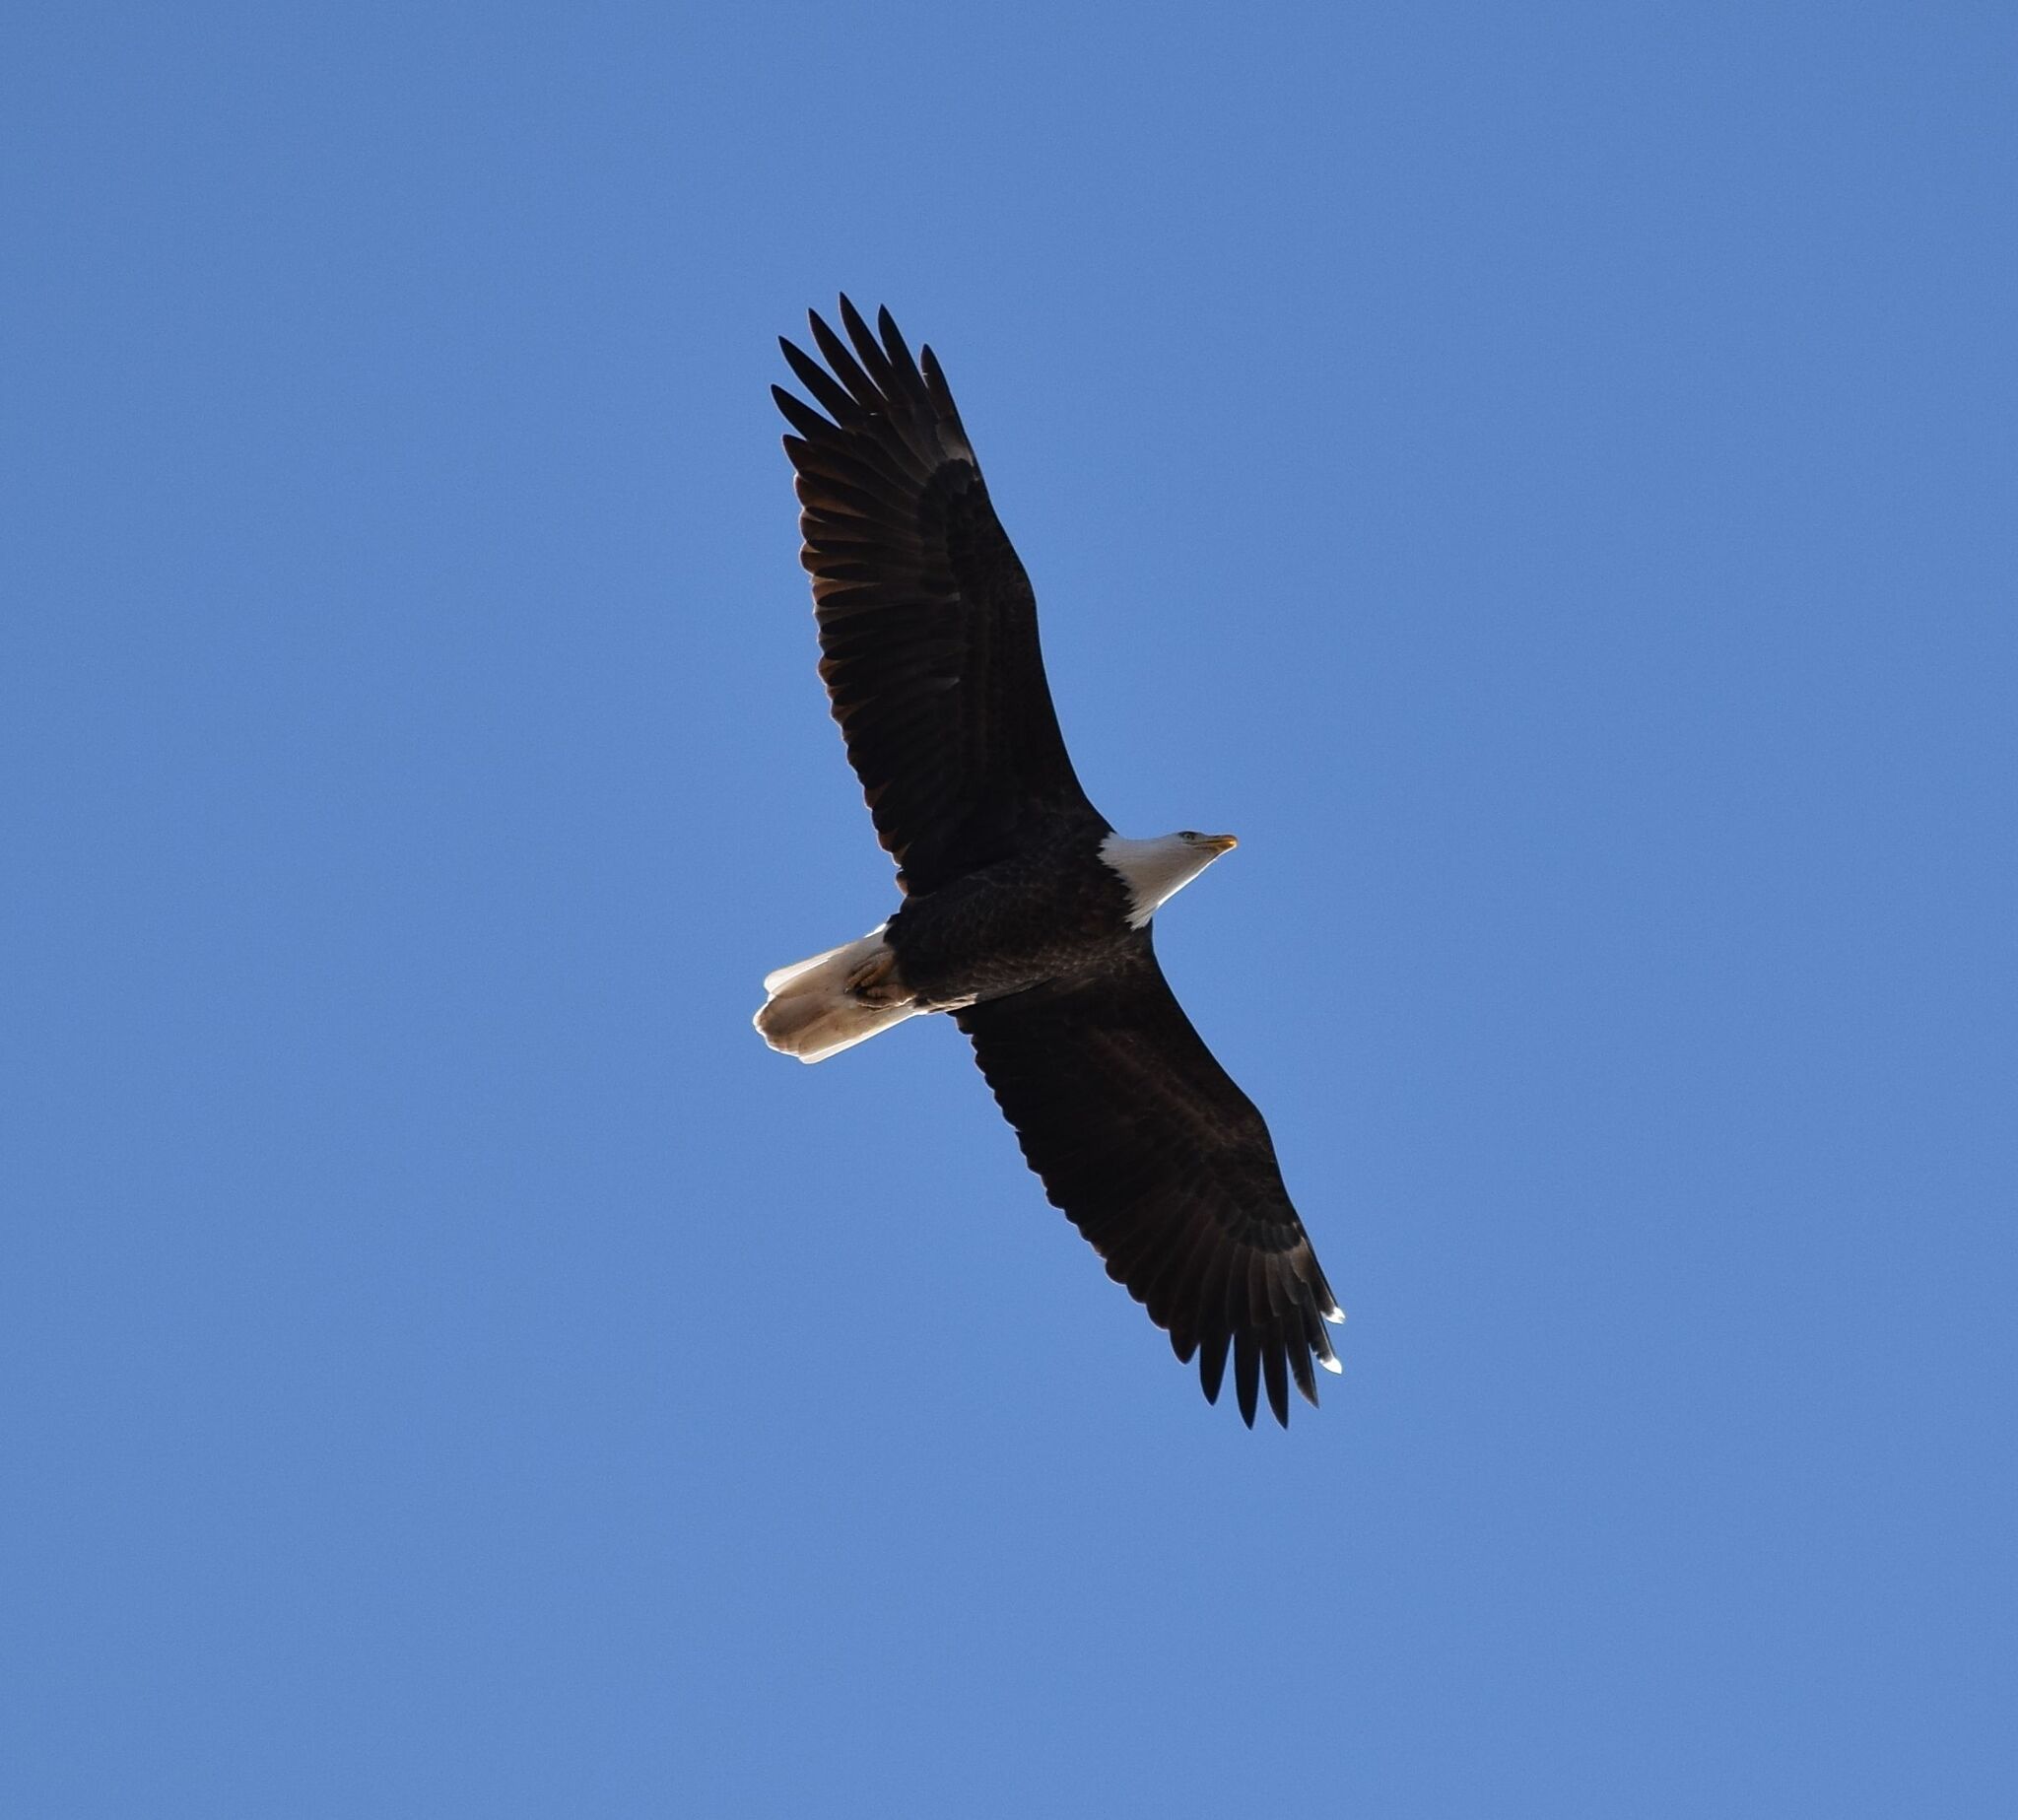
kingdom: Animalia
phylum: Chordata
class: Aves
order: Accipitriformes
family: Accipitridae
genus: Haliaeetus
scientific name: Haliaeetus leucocephalus
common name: Bald eagle
